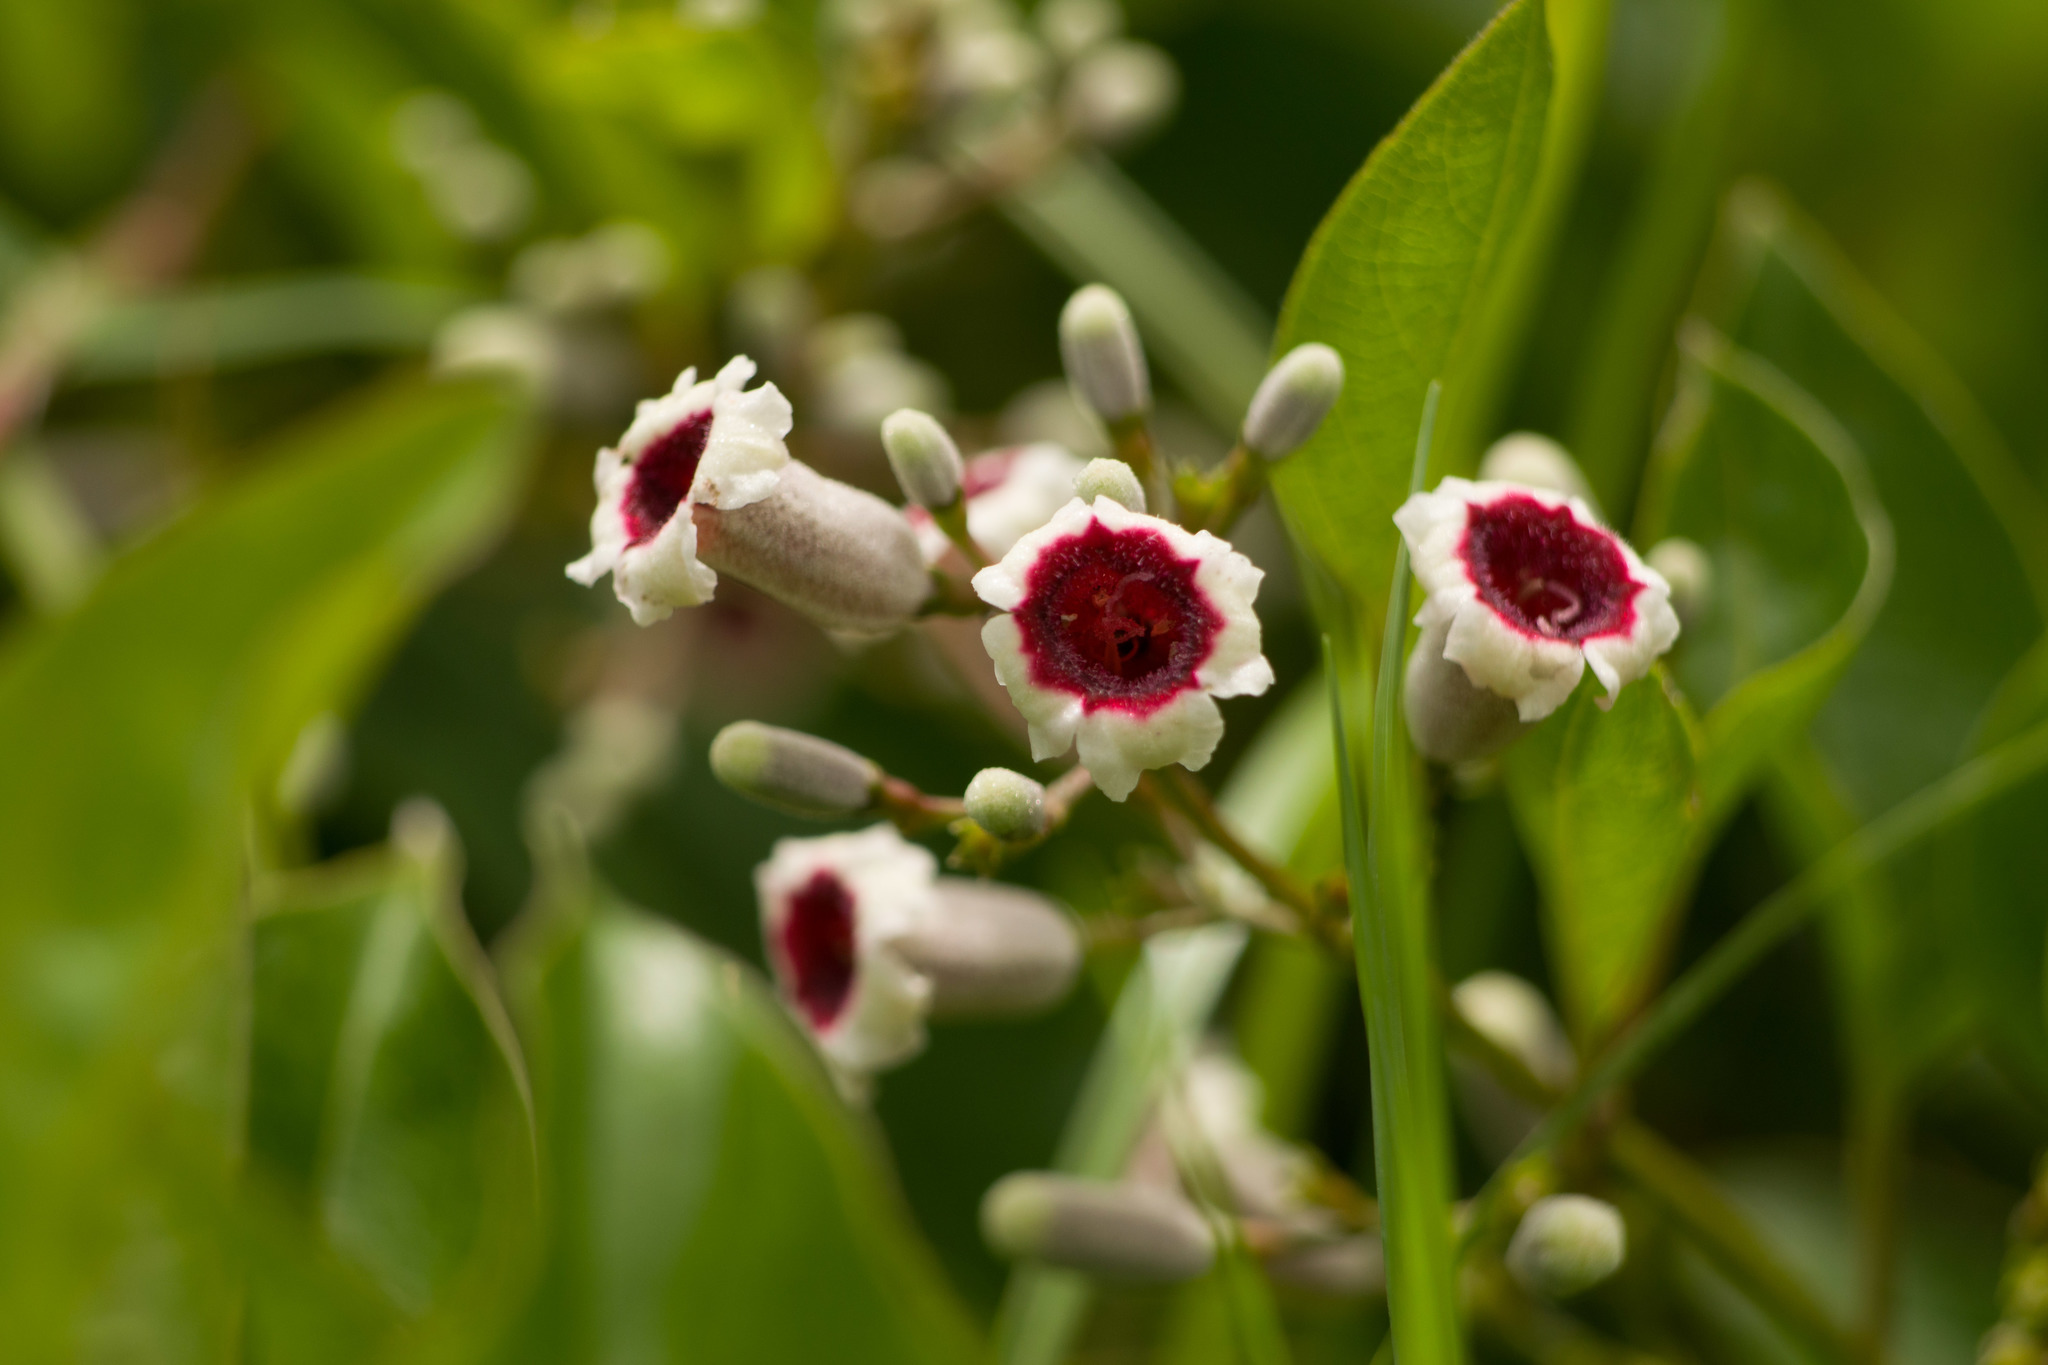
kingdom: Plantae
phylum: Tracheophyta
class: Magnoliopsida
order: Gentianales
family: Rubiaceae
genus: Paederia
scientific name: Paederia foetida
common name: Stinkvine
